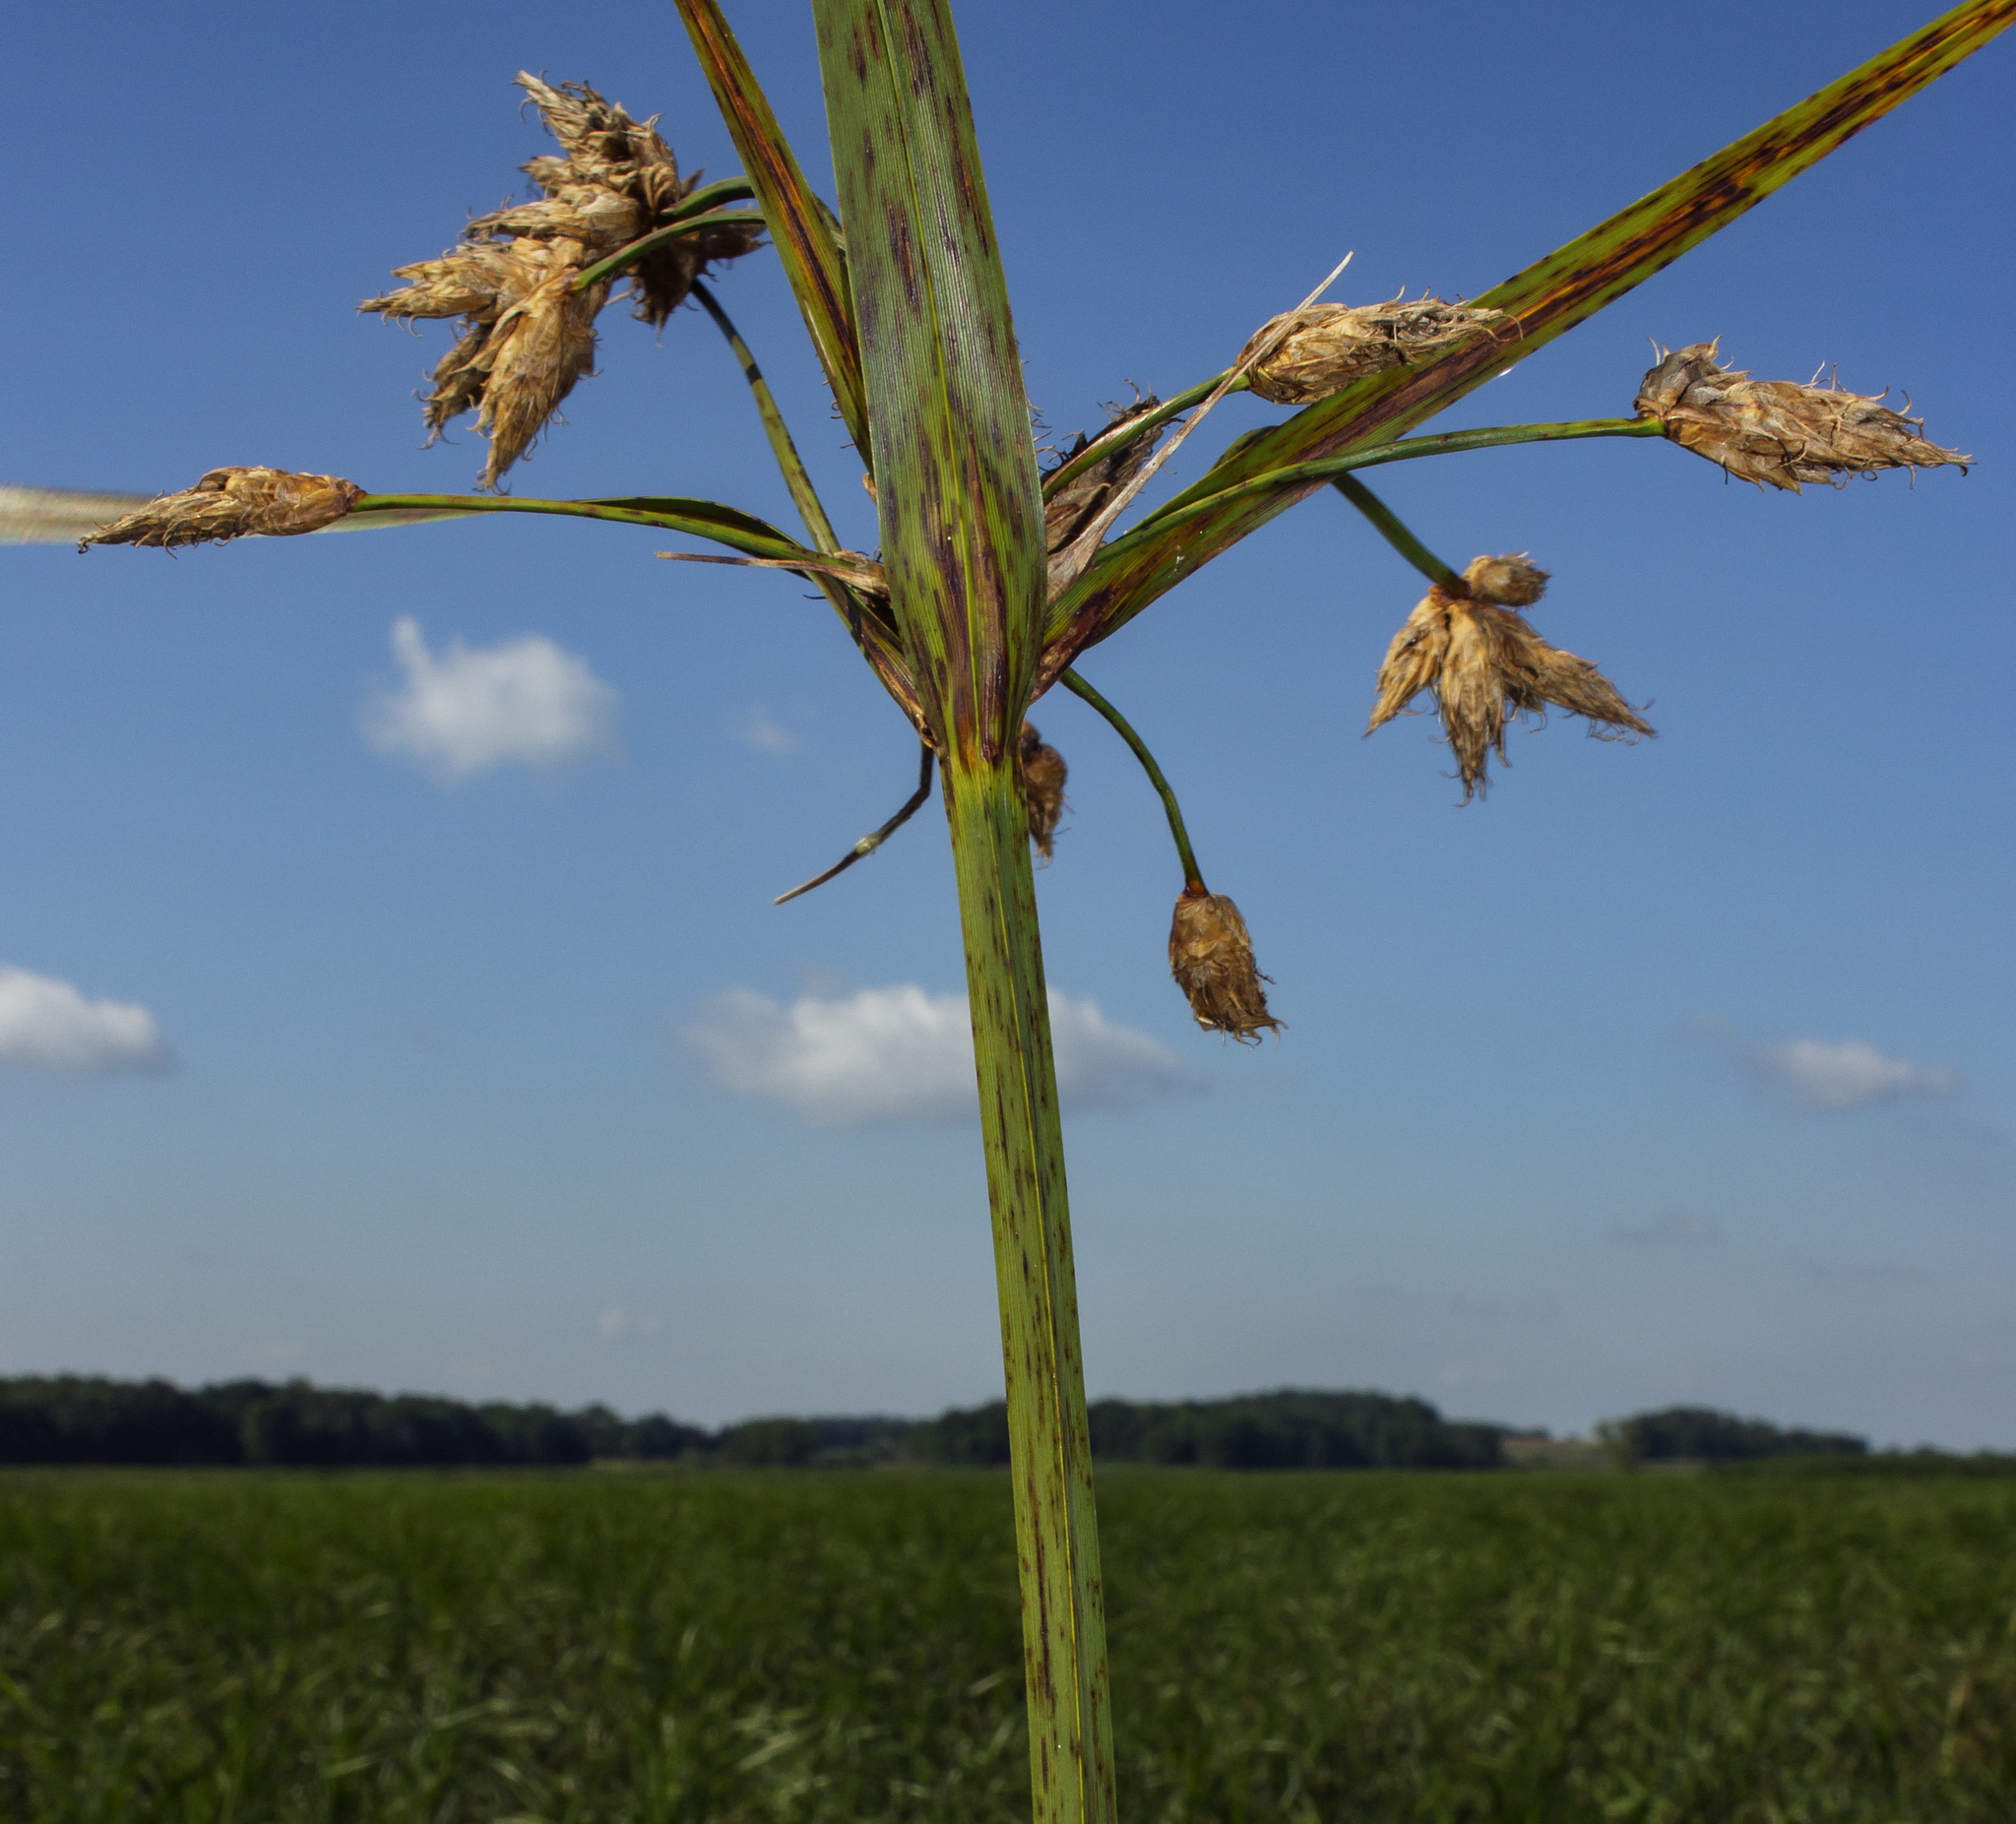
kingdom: Plantae
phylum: Tracheophyta
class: Liliopsida
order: Poales
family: Cyperaceae
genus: Bolboschoenus
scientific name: Bolboschoenus fluviatilis
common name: River bulrush
